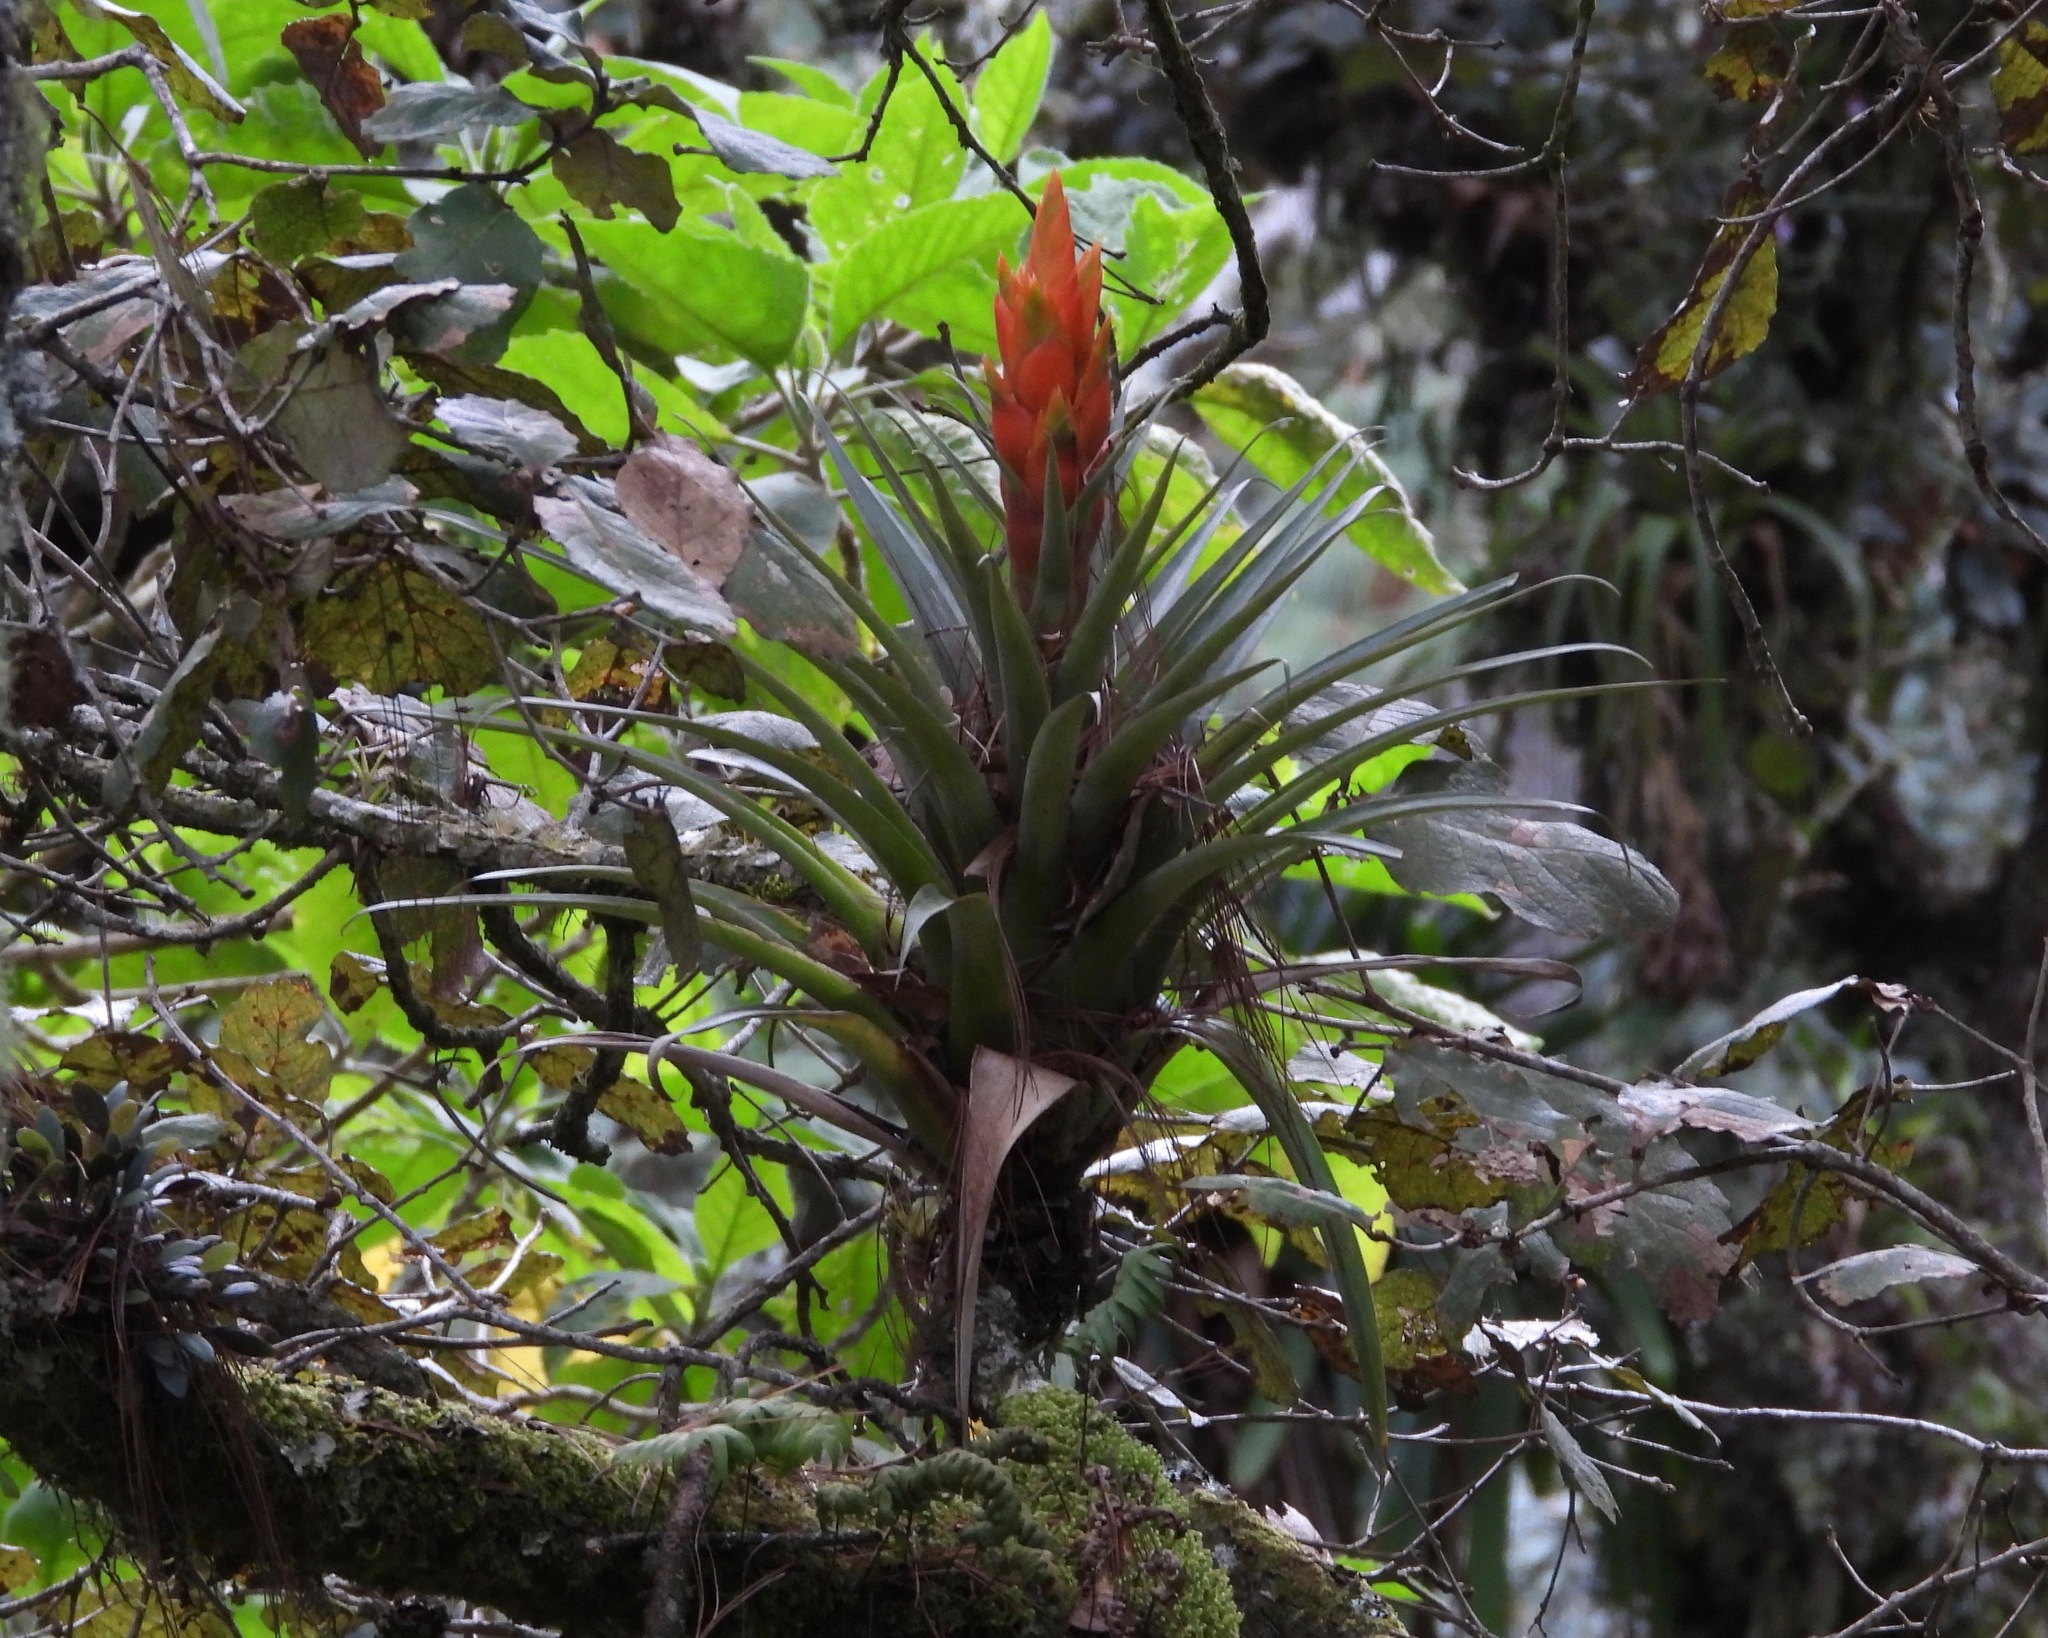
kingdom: Plantae
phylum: Tracheophyta
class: Liliopsida
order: Poales
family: Bromeliaceae
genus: Tillandsia
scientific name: Tillandsia ponderosa
